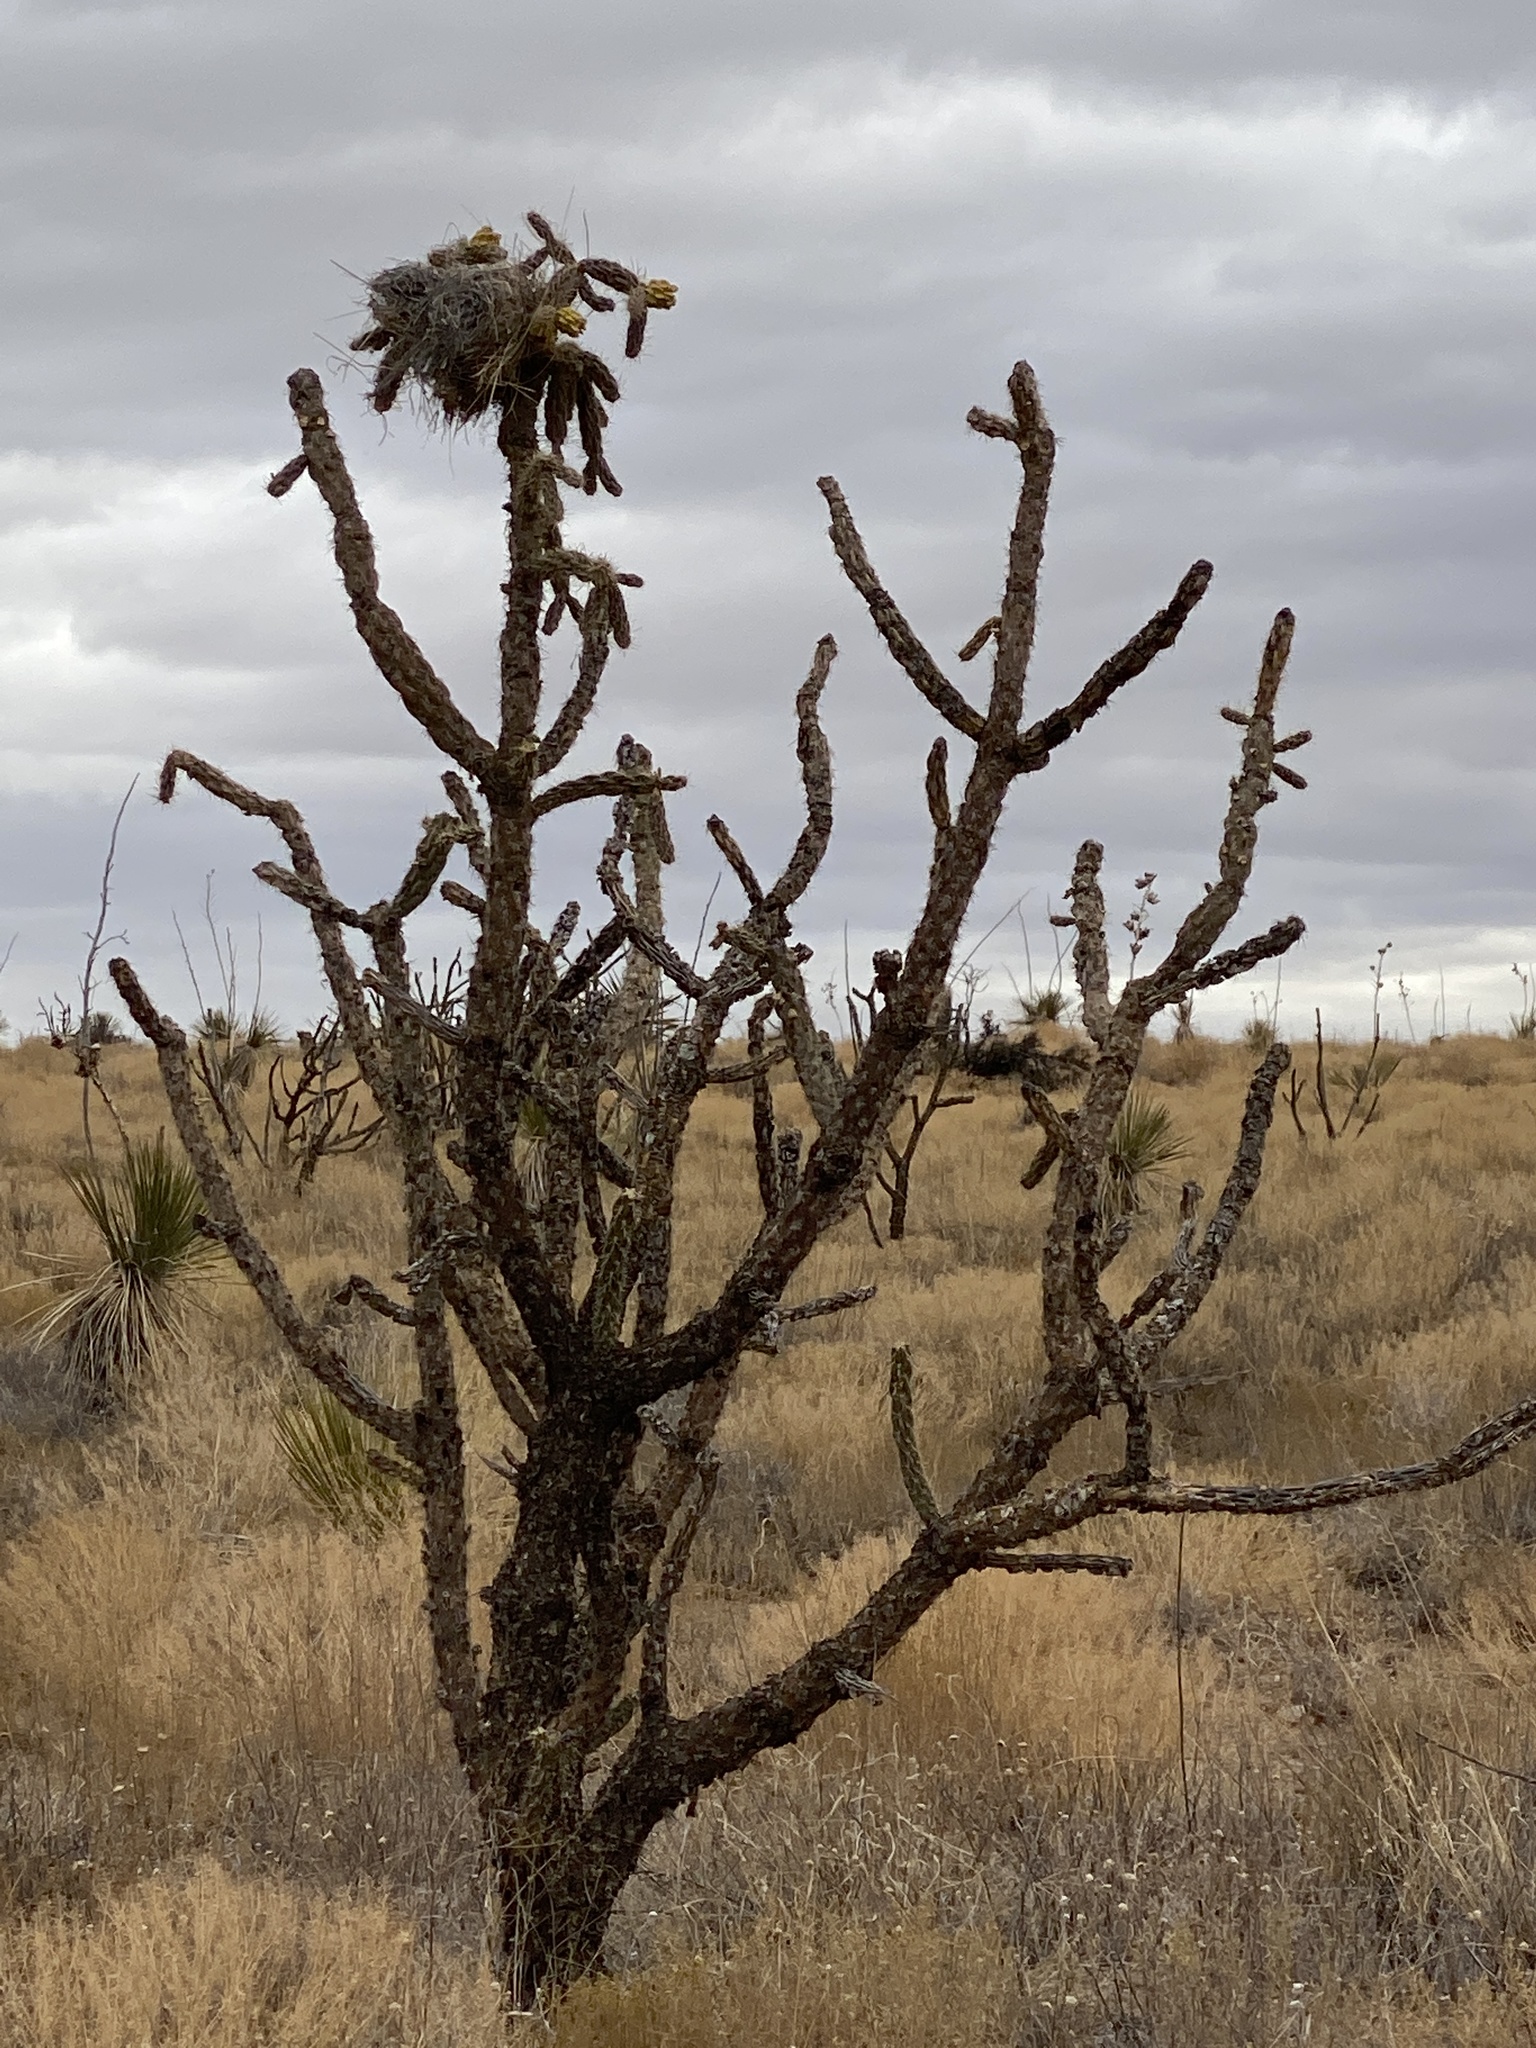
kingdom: Plantae
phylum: Tracheophyta
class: Magnoliopsida
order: Caryophyllales
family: Cactaceae
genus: Cylindropuntia
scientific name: Cylindropuntia imbricata
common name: Candelabrum cactus
